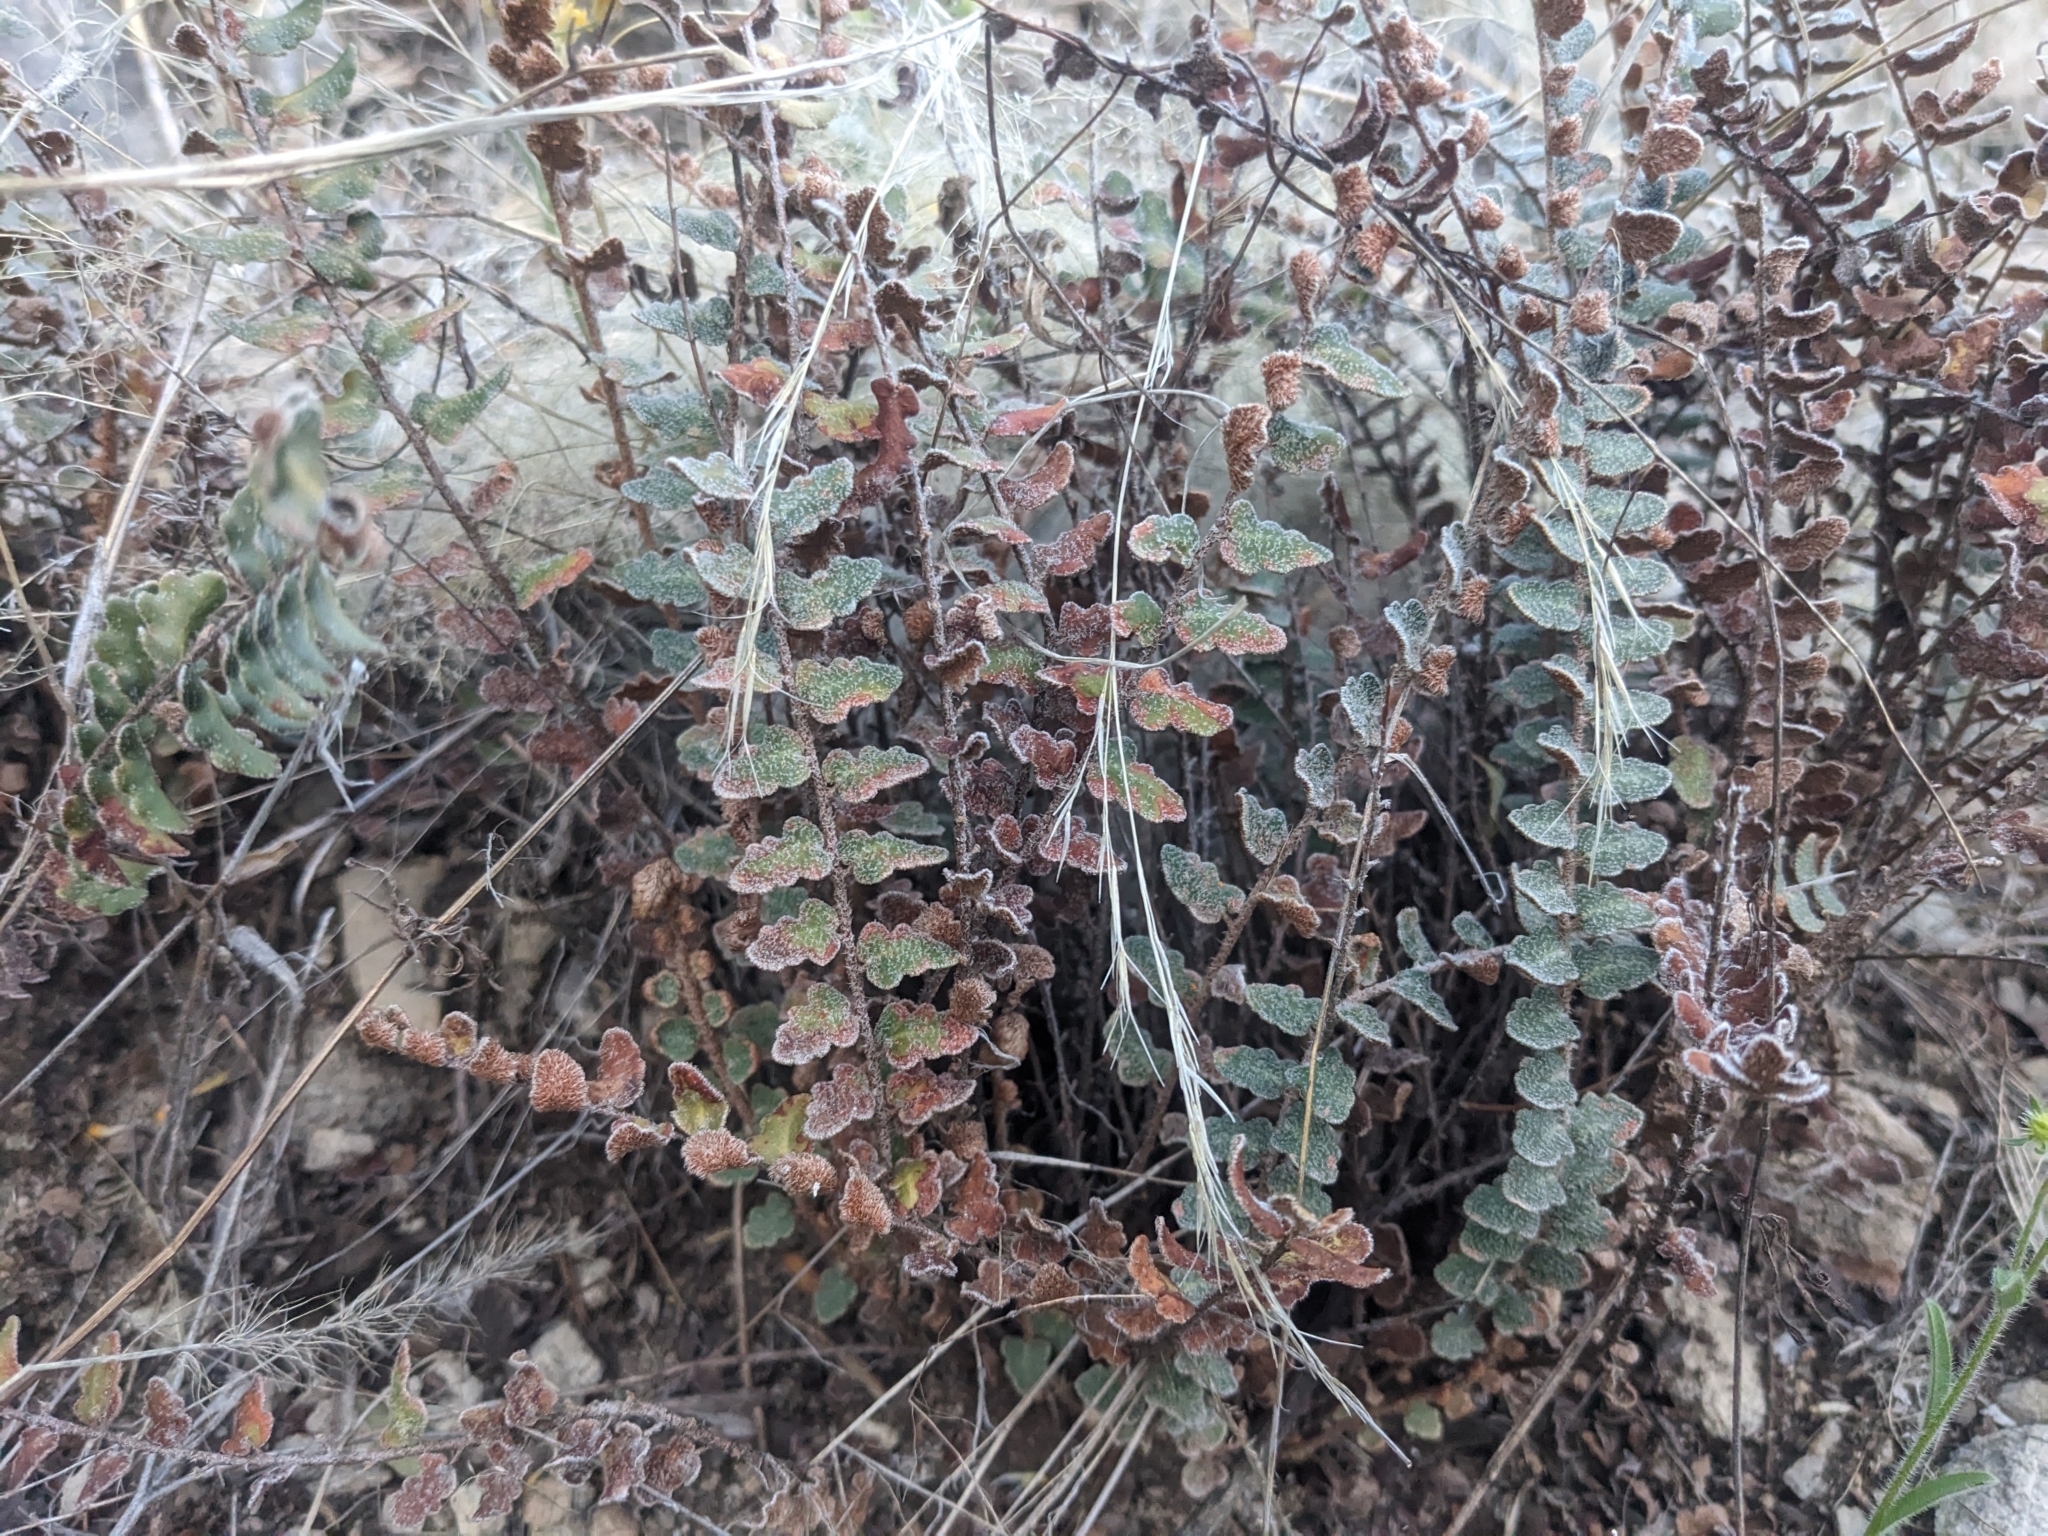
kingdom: Plantae
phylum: Tracheophyta
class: Polypodiopsida
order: Polypodiales
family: Pteridaceae
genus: Astrolepis
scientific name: Astrolepis integerrima
